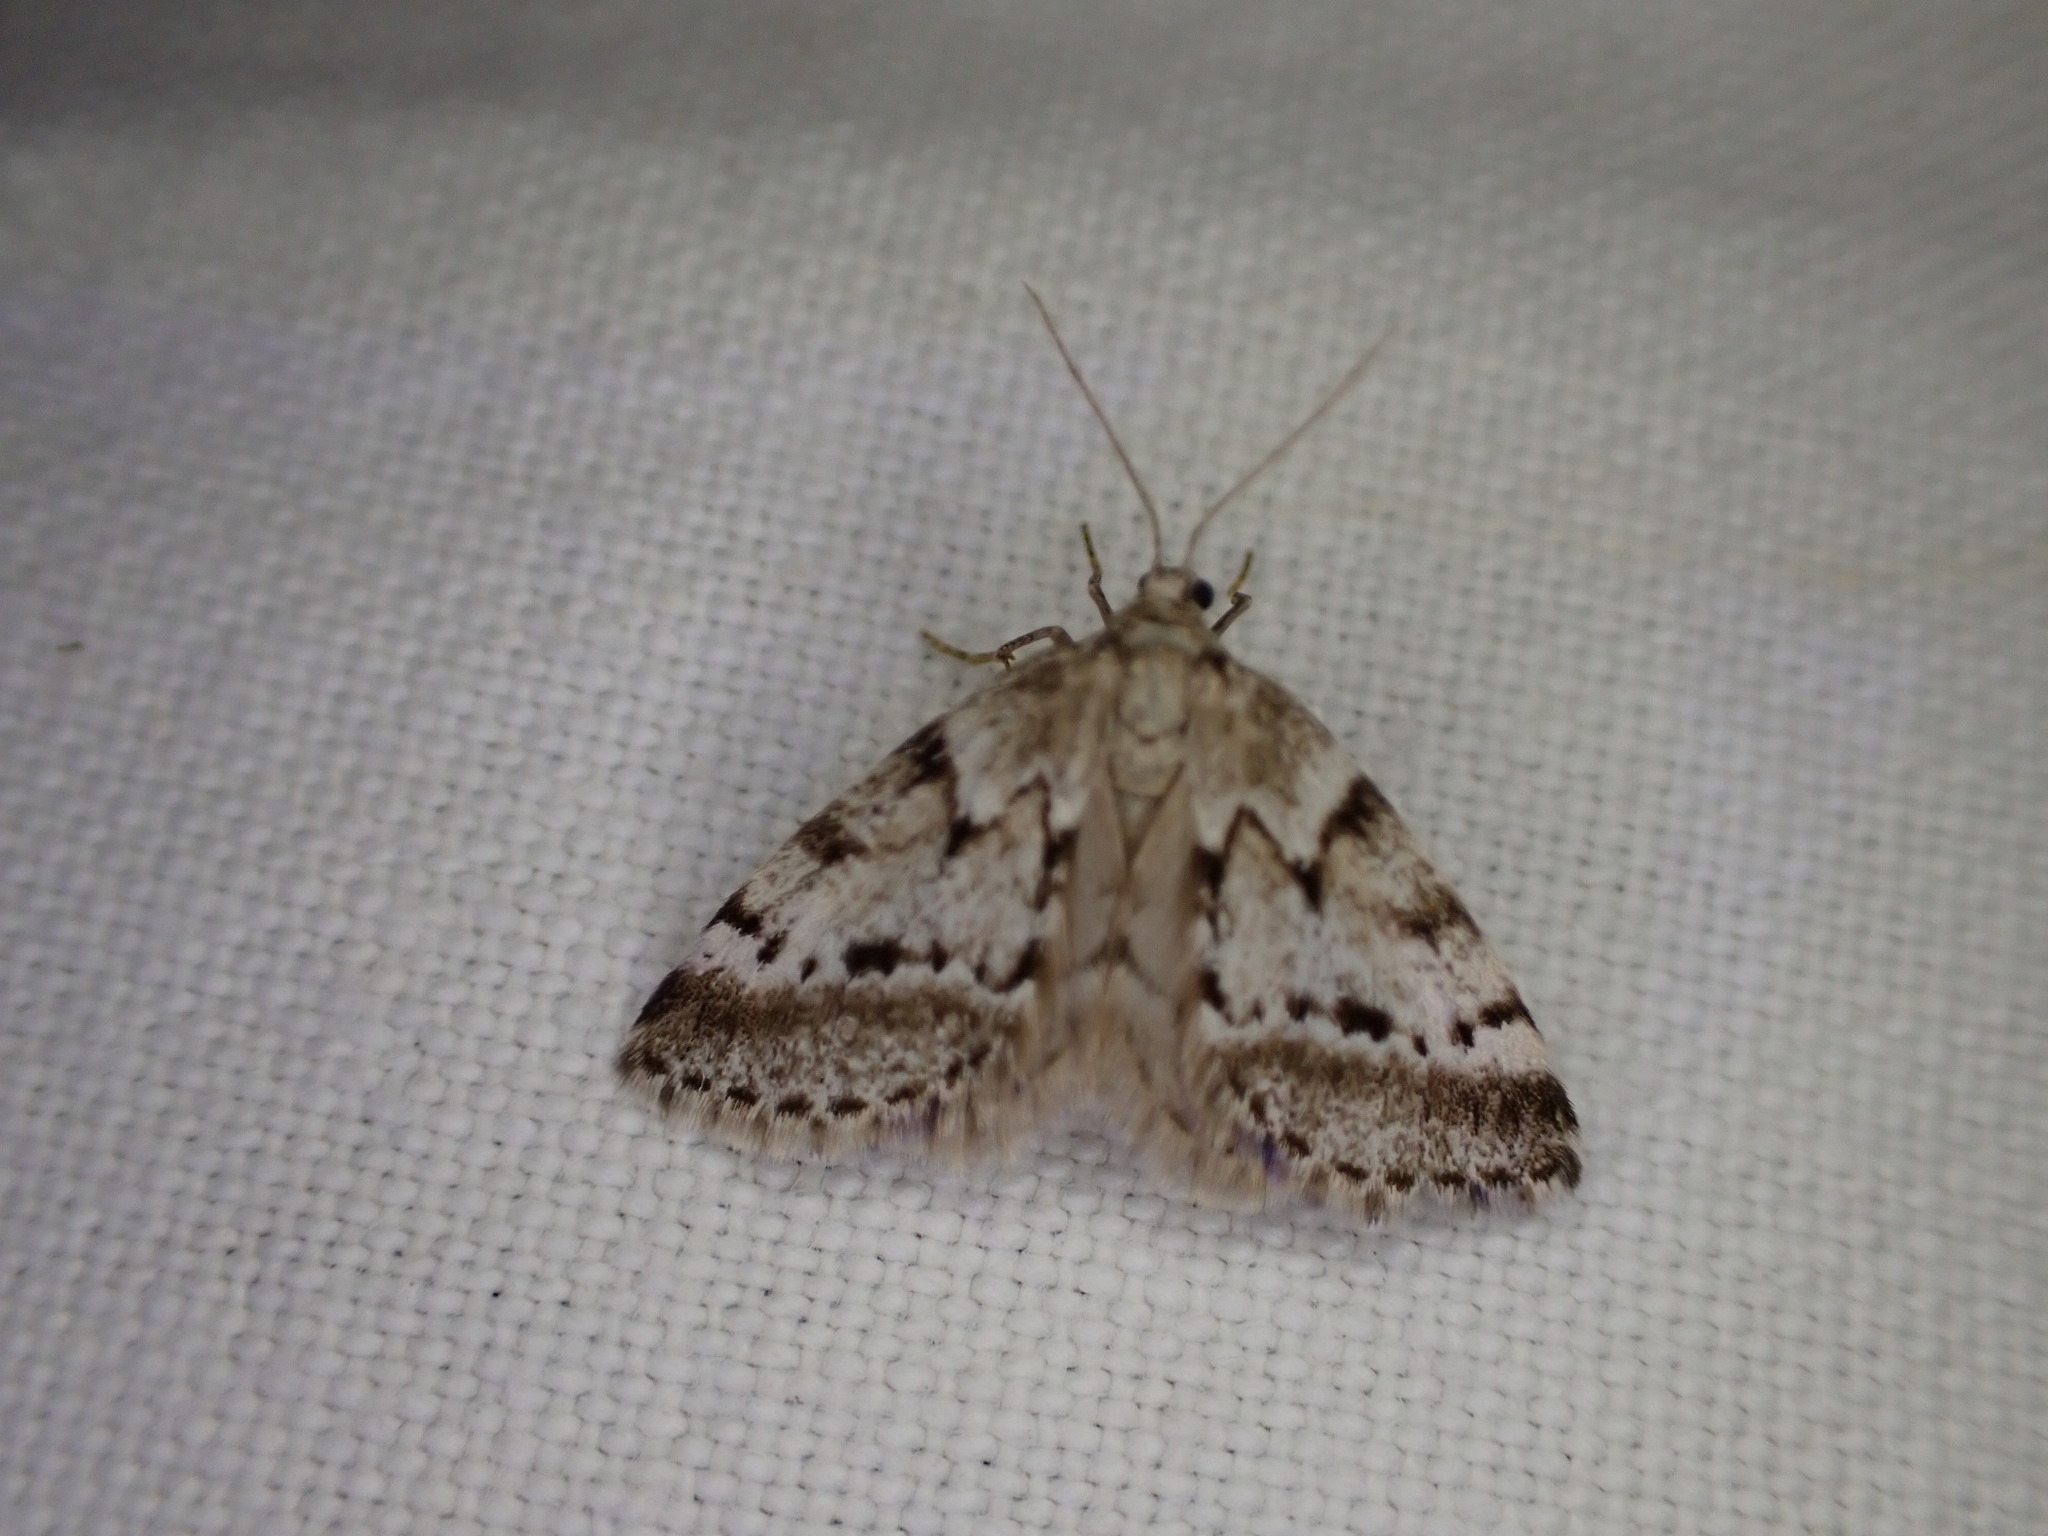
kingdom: Animalia
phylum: Arthropoda
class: Insecta
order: Lepidoptera
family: Geometridae
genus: Tephronia
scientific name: Tephronia oranaria
